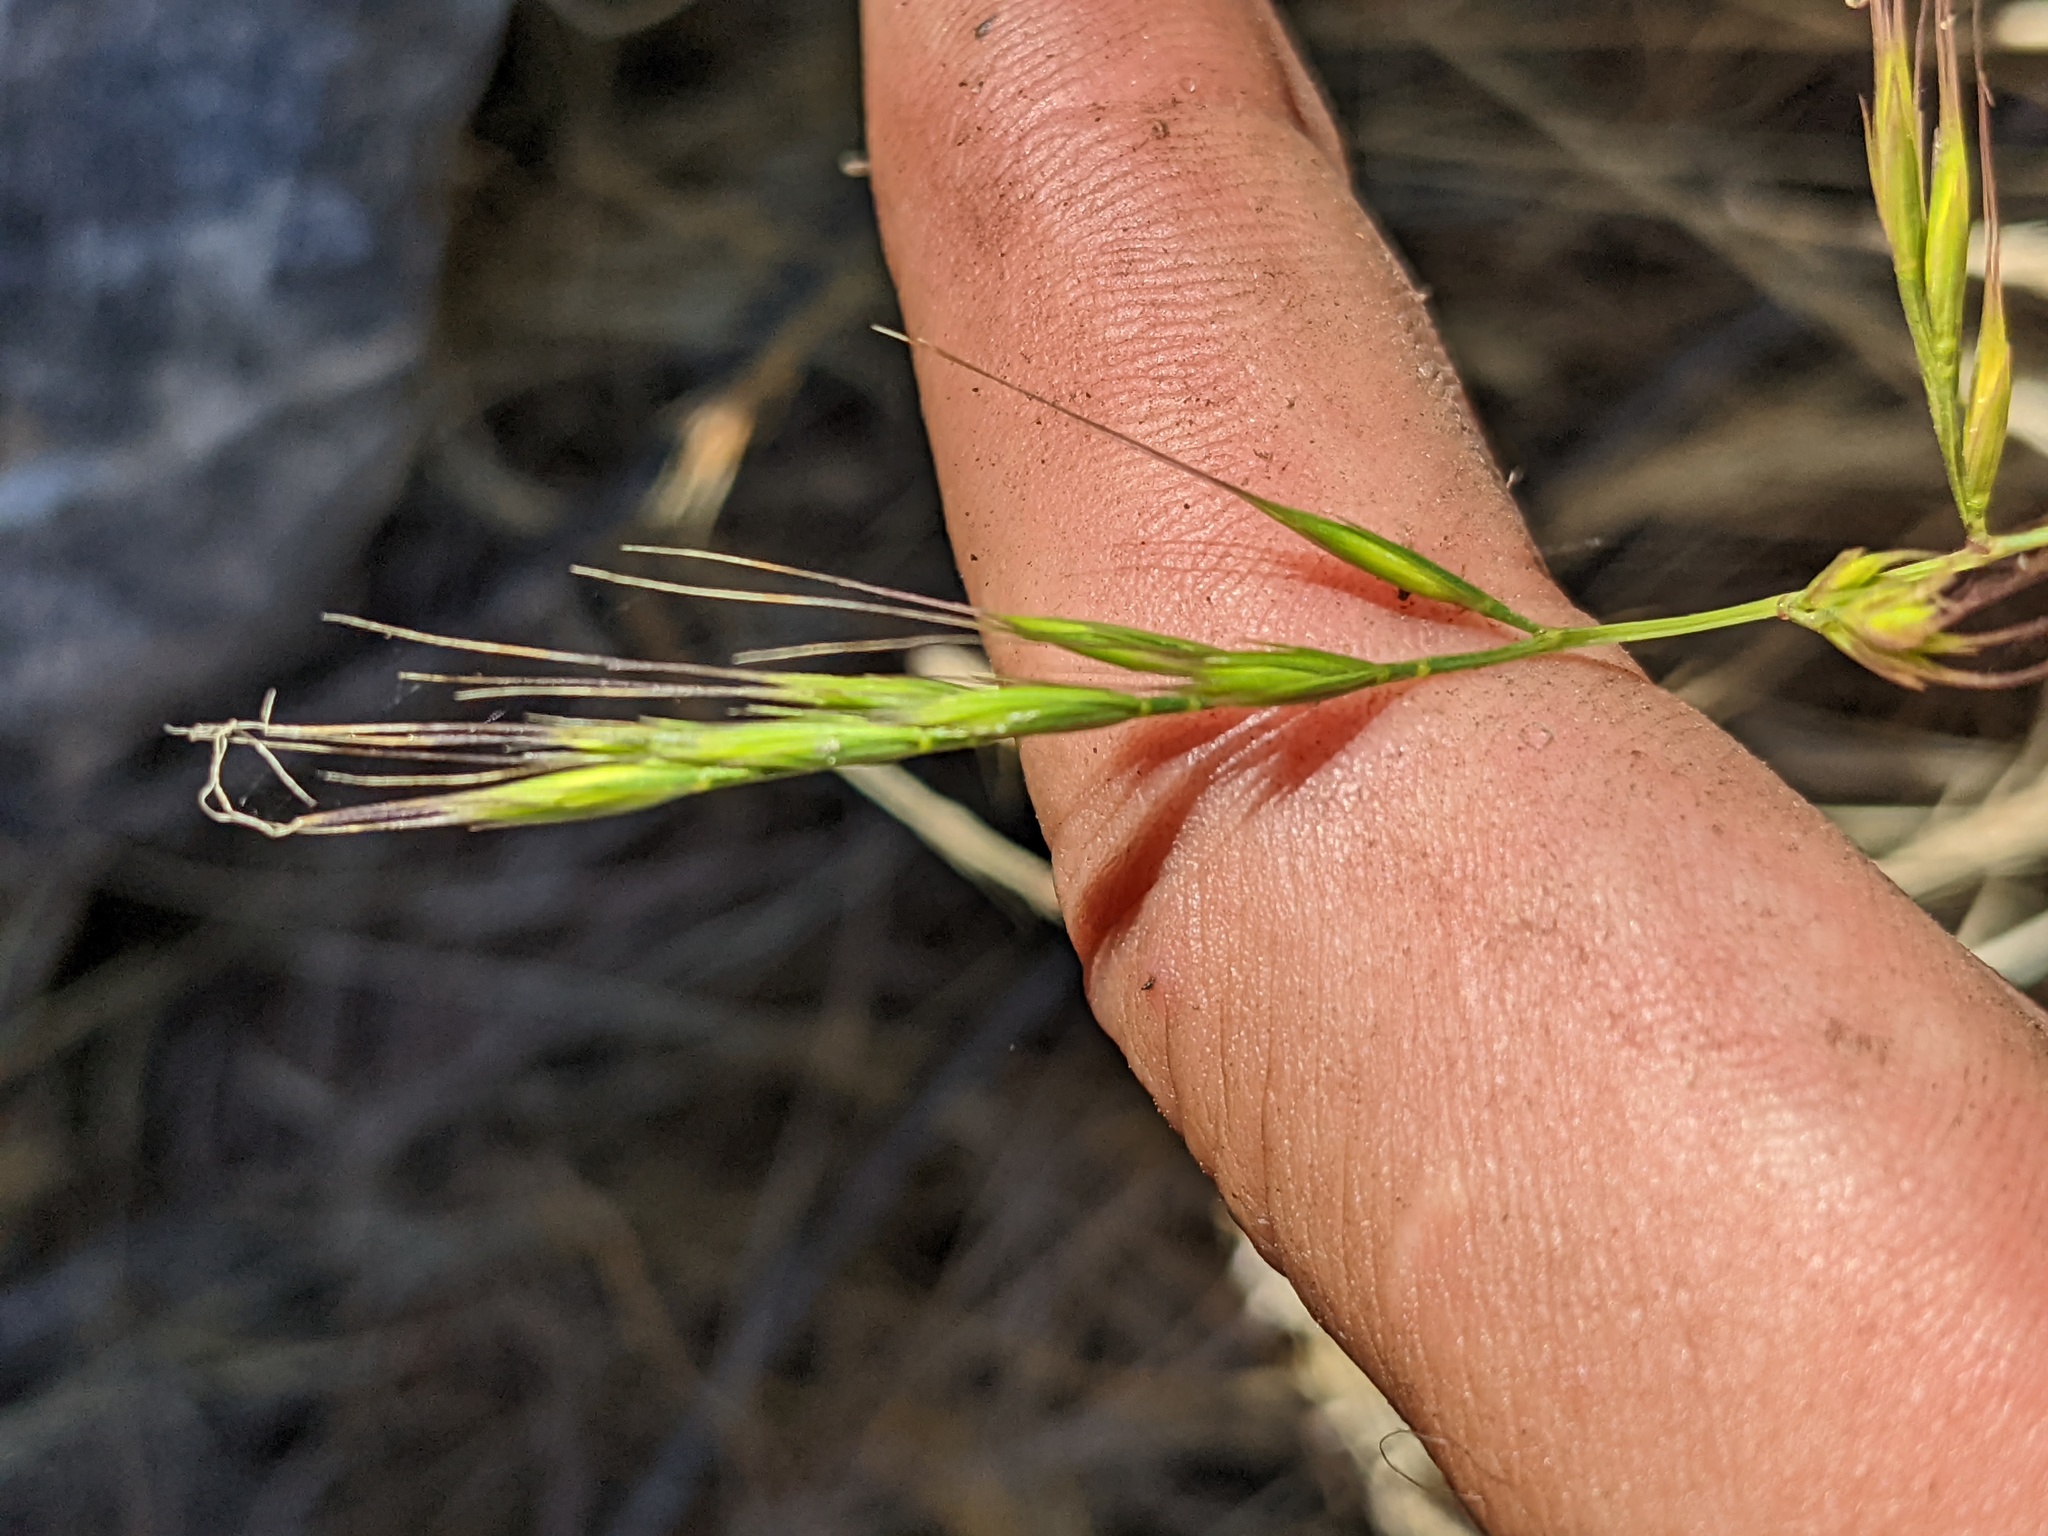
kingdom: Plantae
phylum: Tracheophyta
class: Liliopsida
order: Poales
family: Poaceae
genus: Festuca
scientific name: Festuca microstachys
